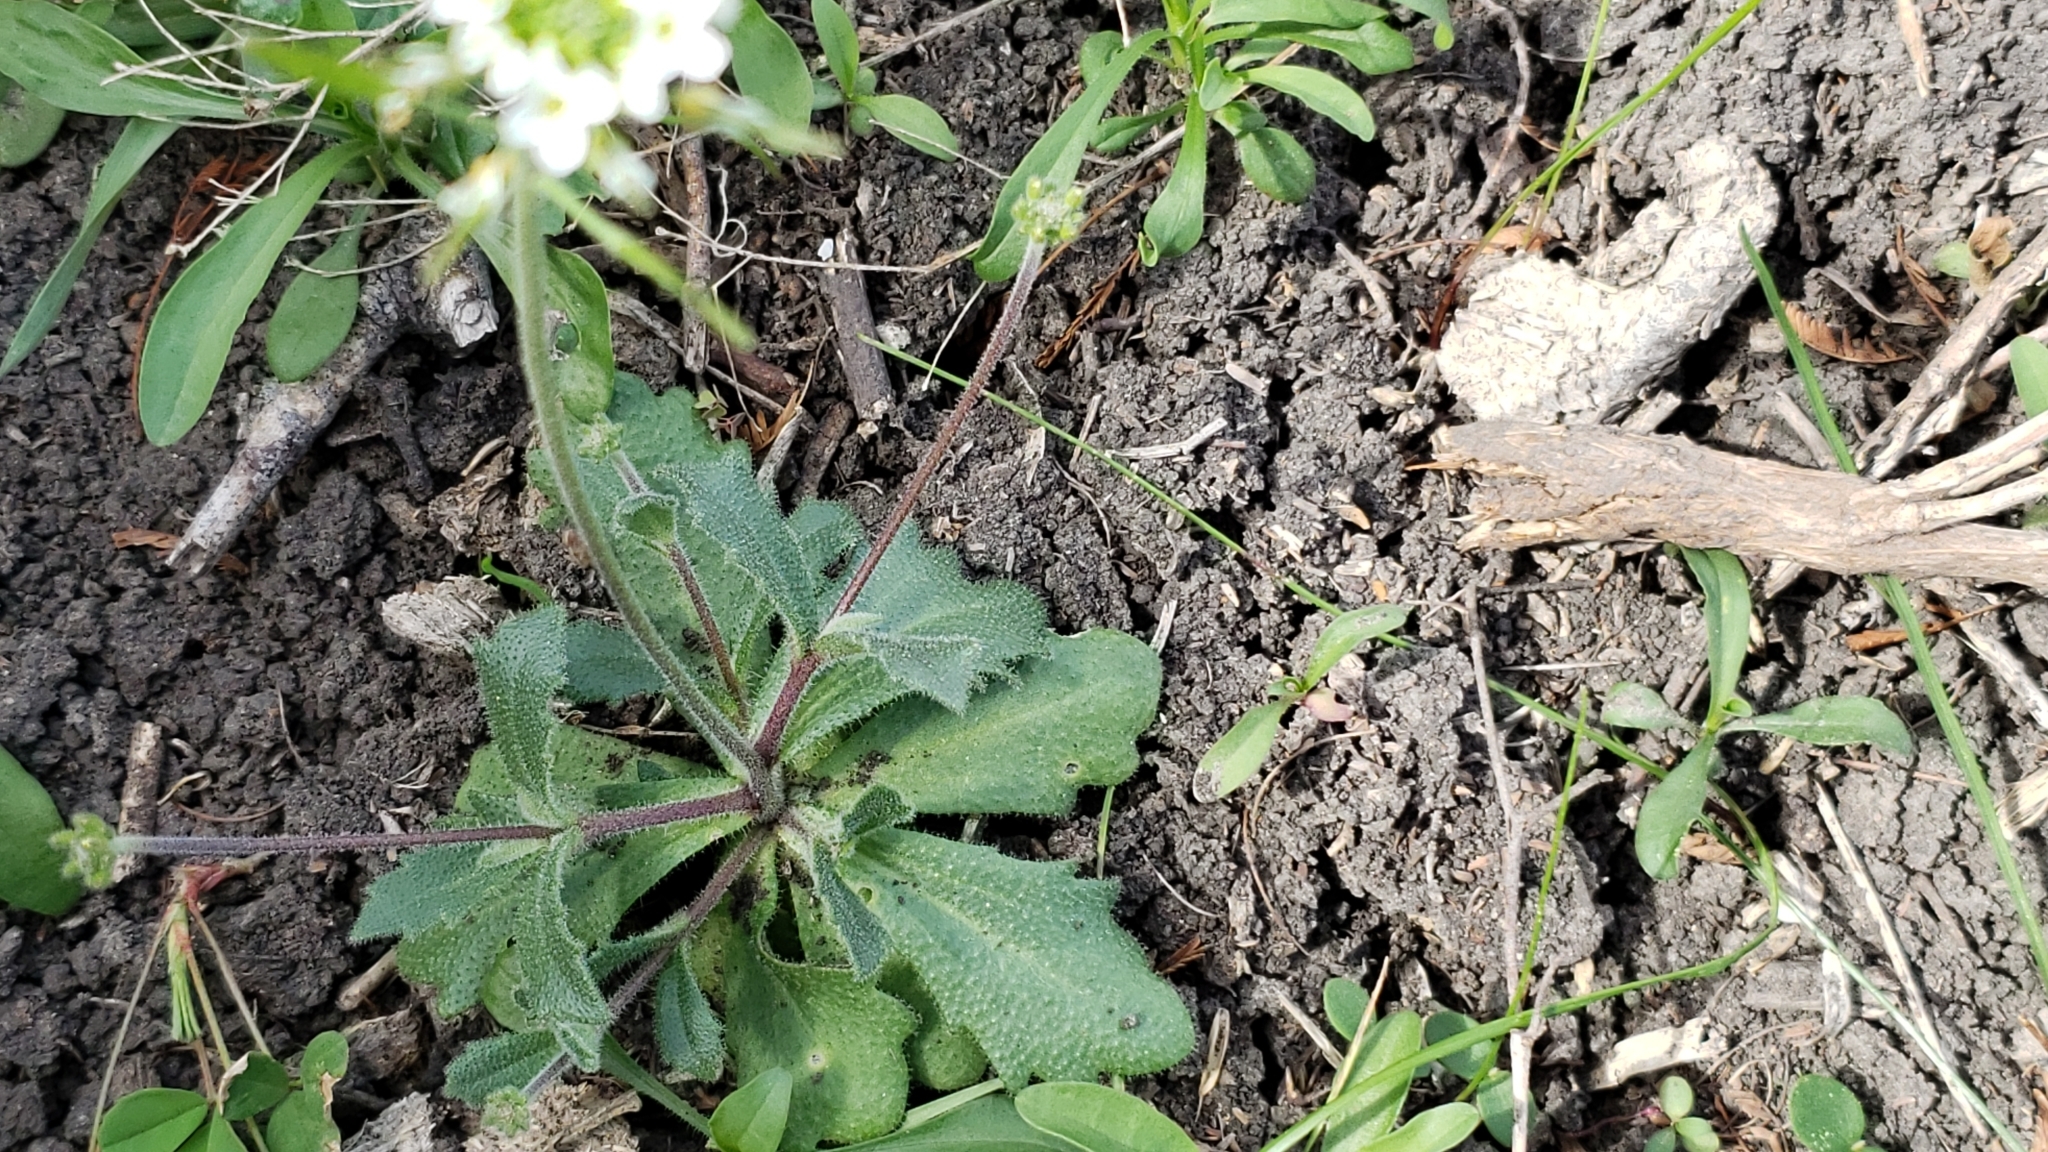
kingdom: Plantae
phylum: Tracheophyta
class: Magnoliopsida
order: Brassicales
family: Brassicaceae
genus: Tomostima
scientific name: Tomostima cuneifolia
